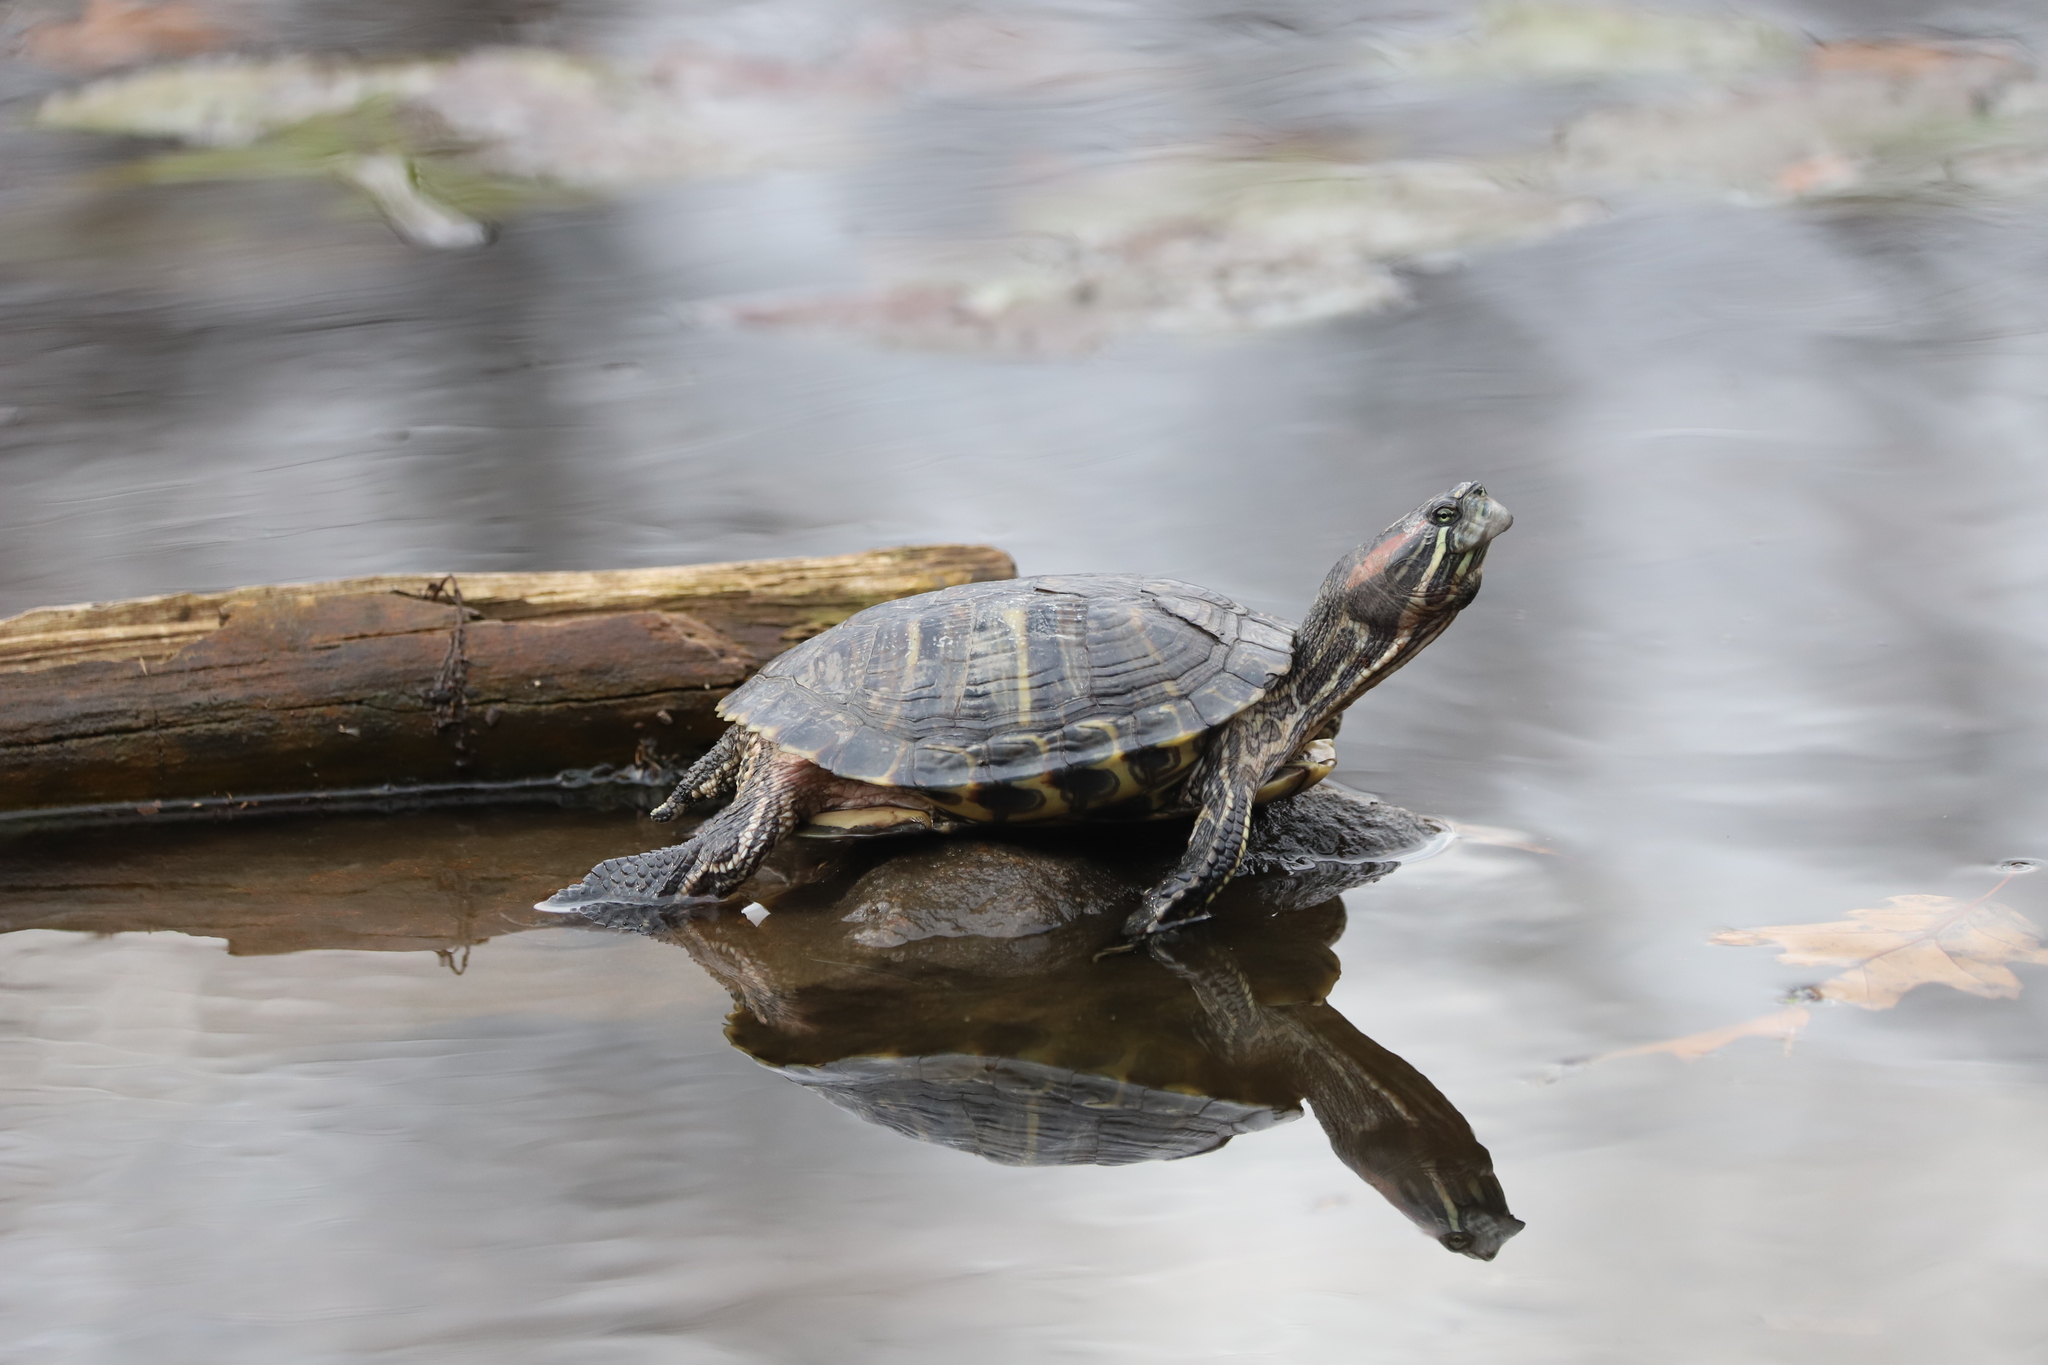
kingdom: Animalia
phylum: Chordata
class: Testudines
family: Emydidae
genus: Trachemys
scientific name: Trachemys scripta
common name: Slider
